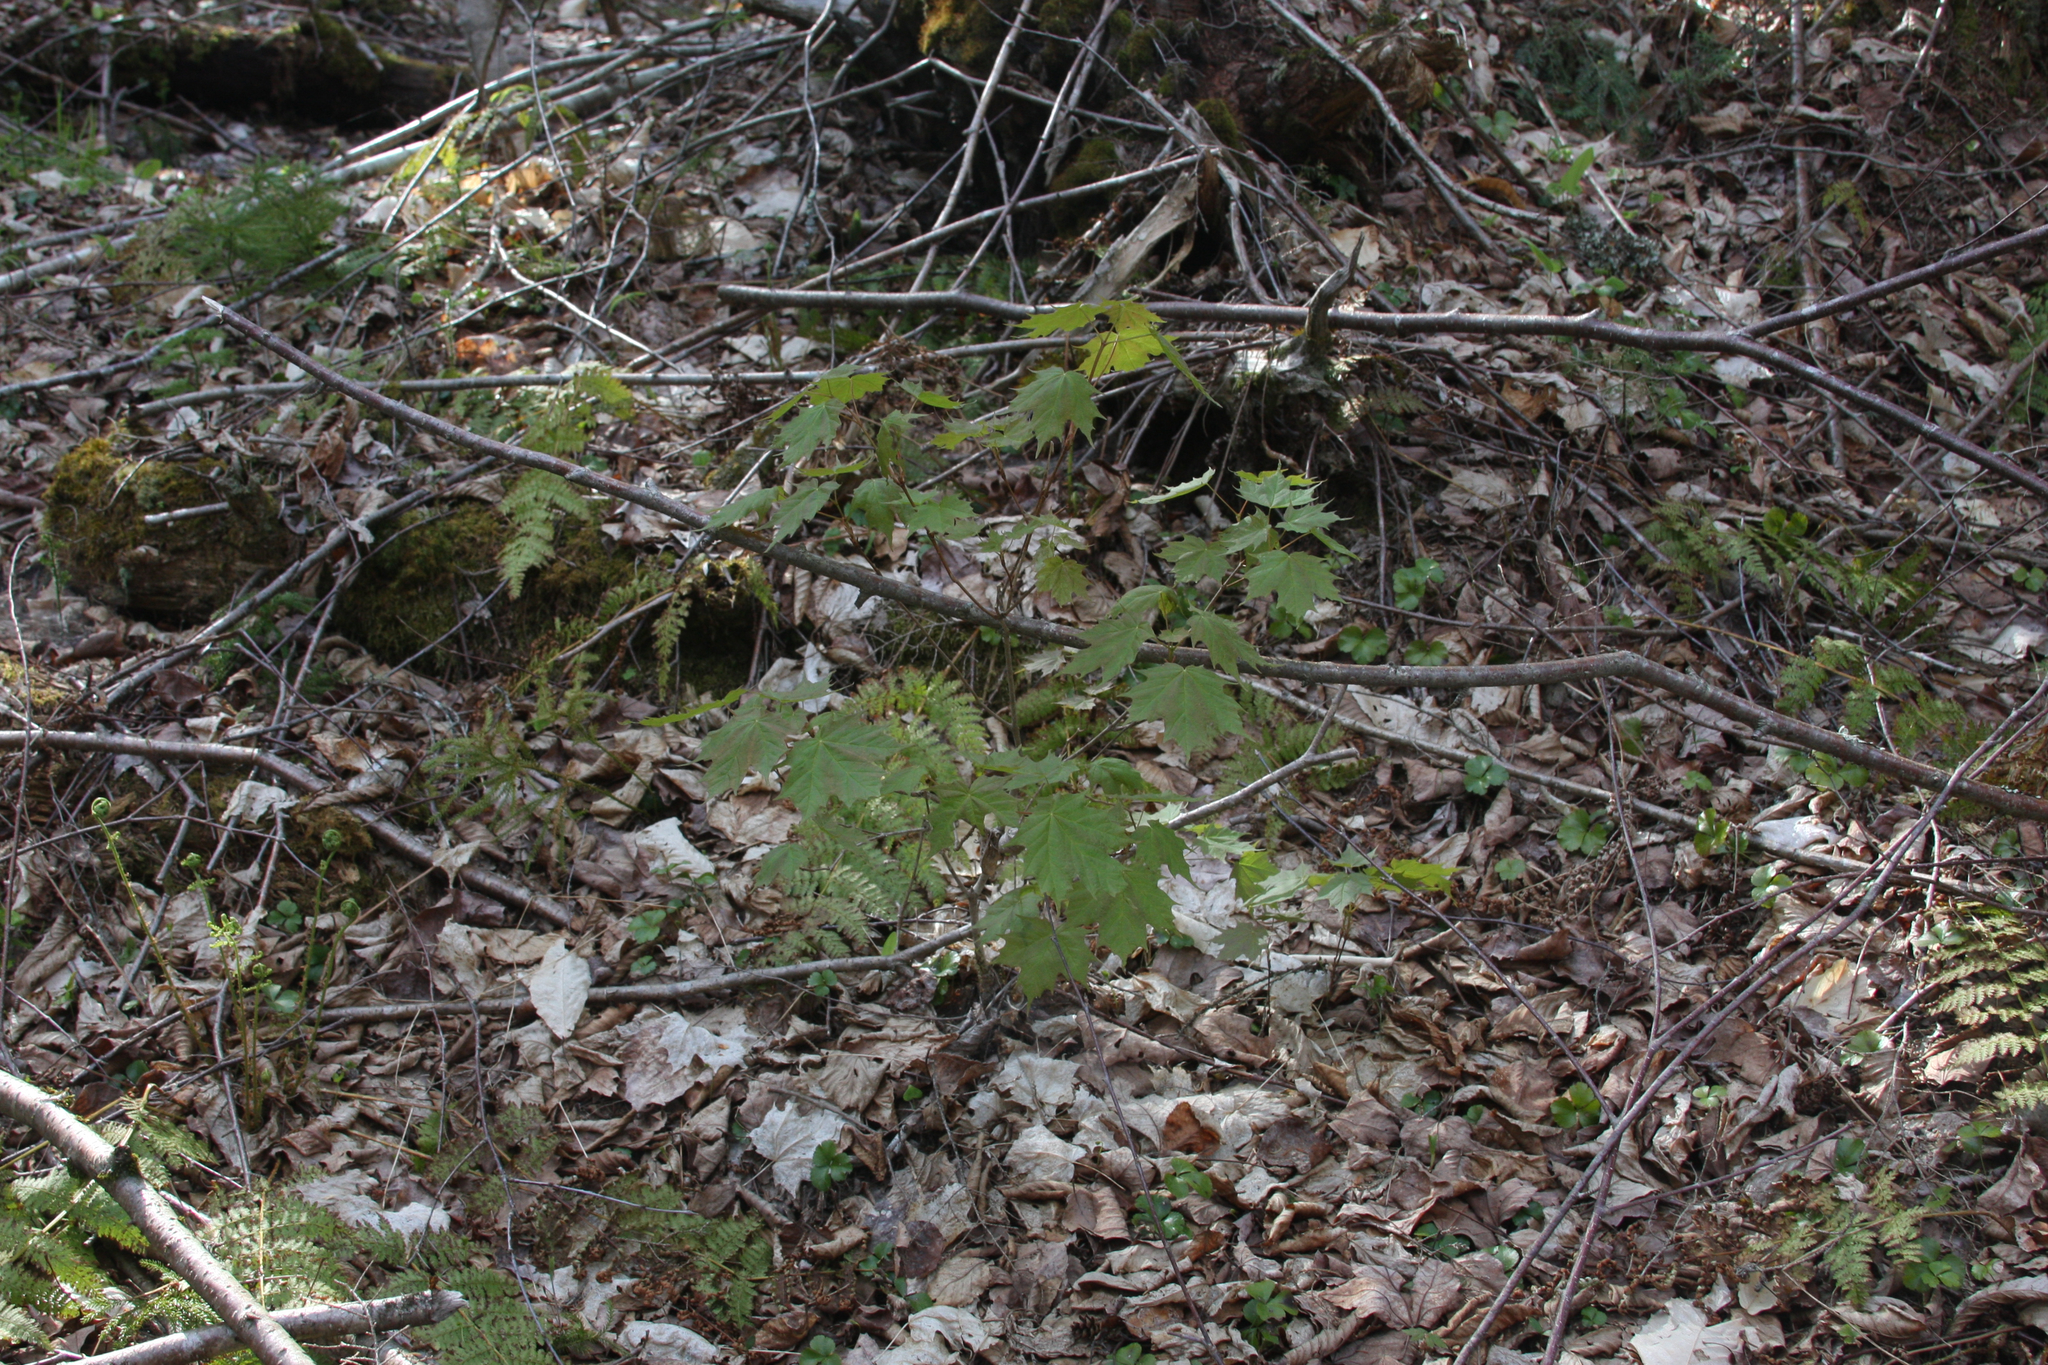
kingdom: Plantae
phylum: Tracheophyta
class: Magnoliopsida
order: Sapindales
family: Sapindaceae
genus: Acer
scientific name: Acer saccharum
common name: Sugar maple
